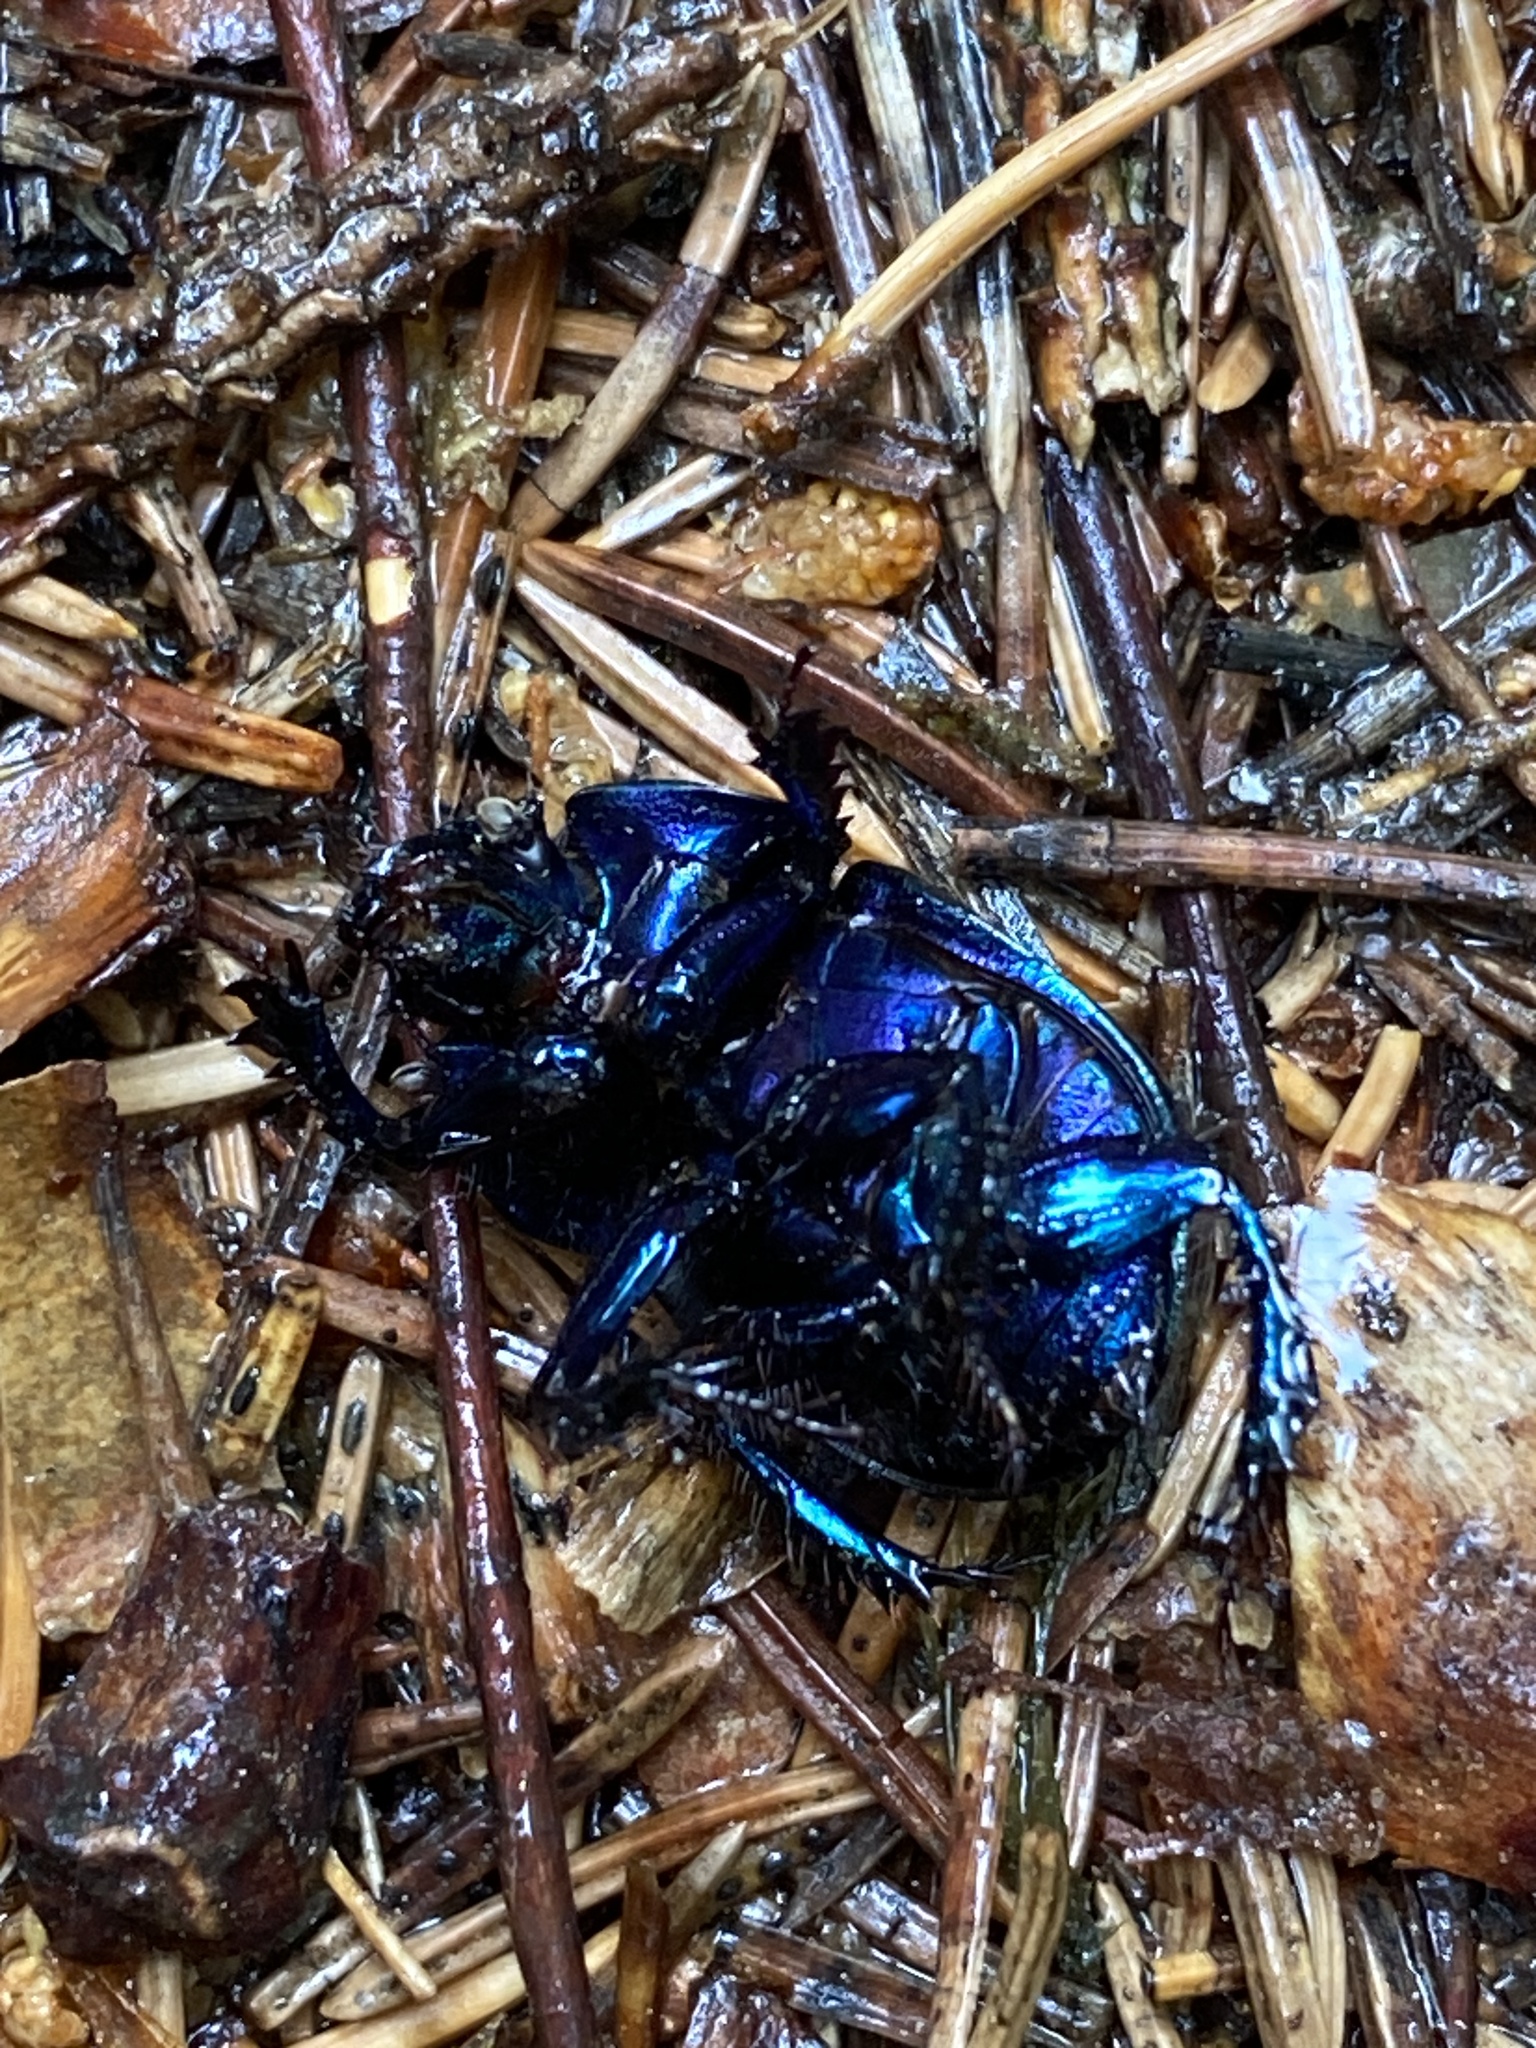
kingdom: Animalia
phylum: Arthropoda
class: Insecta
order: Coleoptera
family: Geotrupidae
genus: Anoplotrupes
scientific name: Anoplotrupes stercorosus
